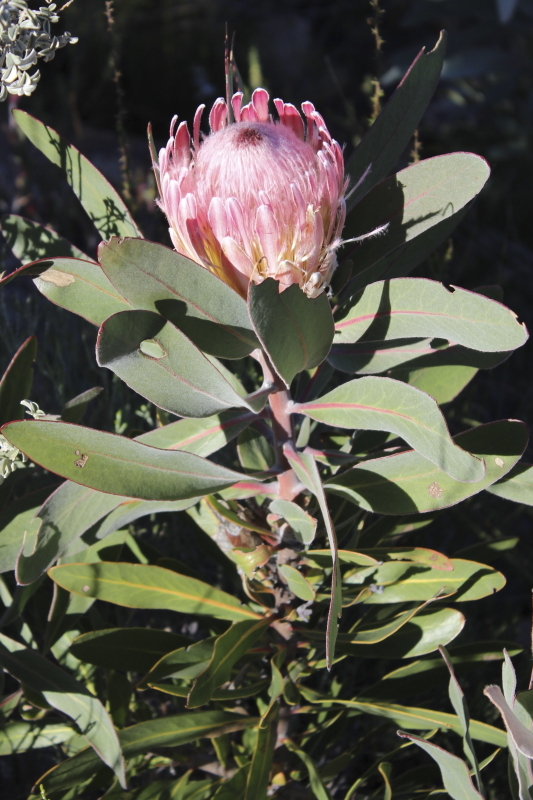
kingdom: Plantae
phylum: Tracheophyta
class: Magnoliopsida
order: Proteales
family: Proteaceae
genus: Protea
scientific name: Protea lorifolia
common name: Strap-leaved protea
